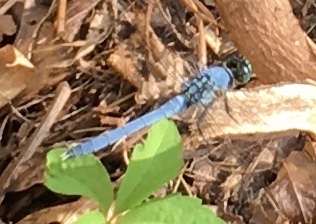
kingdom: Animalia
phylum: Arthropoda
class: Insecta
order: Odonata
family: Libellulidae
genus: Erythemis
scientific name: Erythemis simplicicollis
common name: Eastern pondhawk
